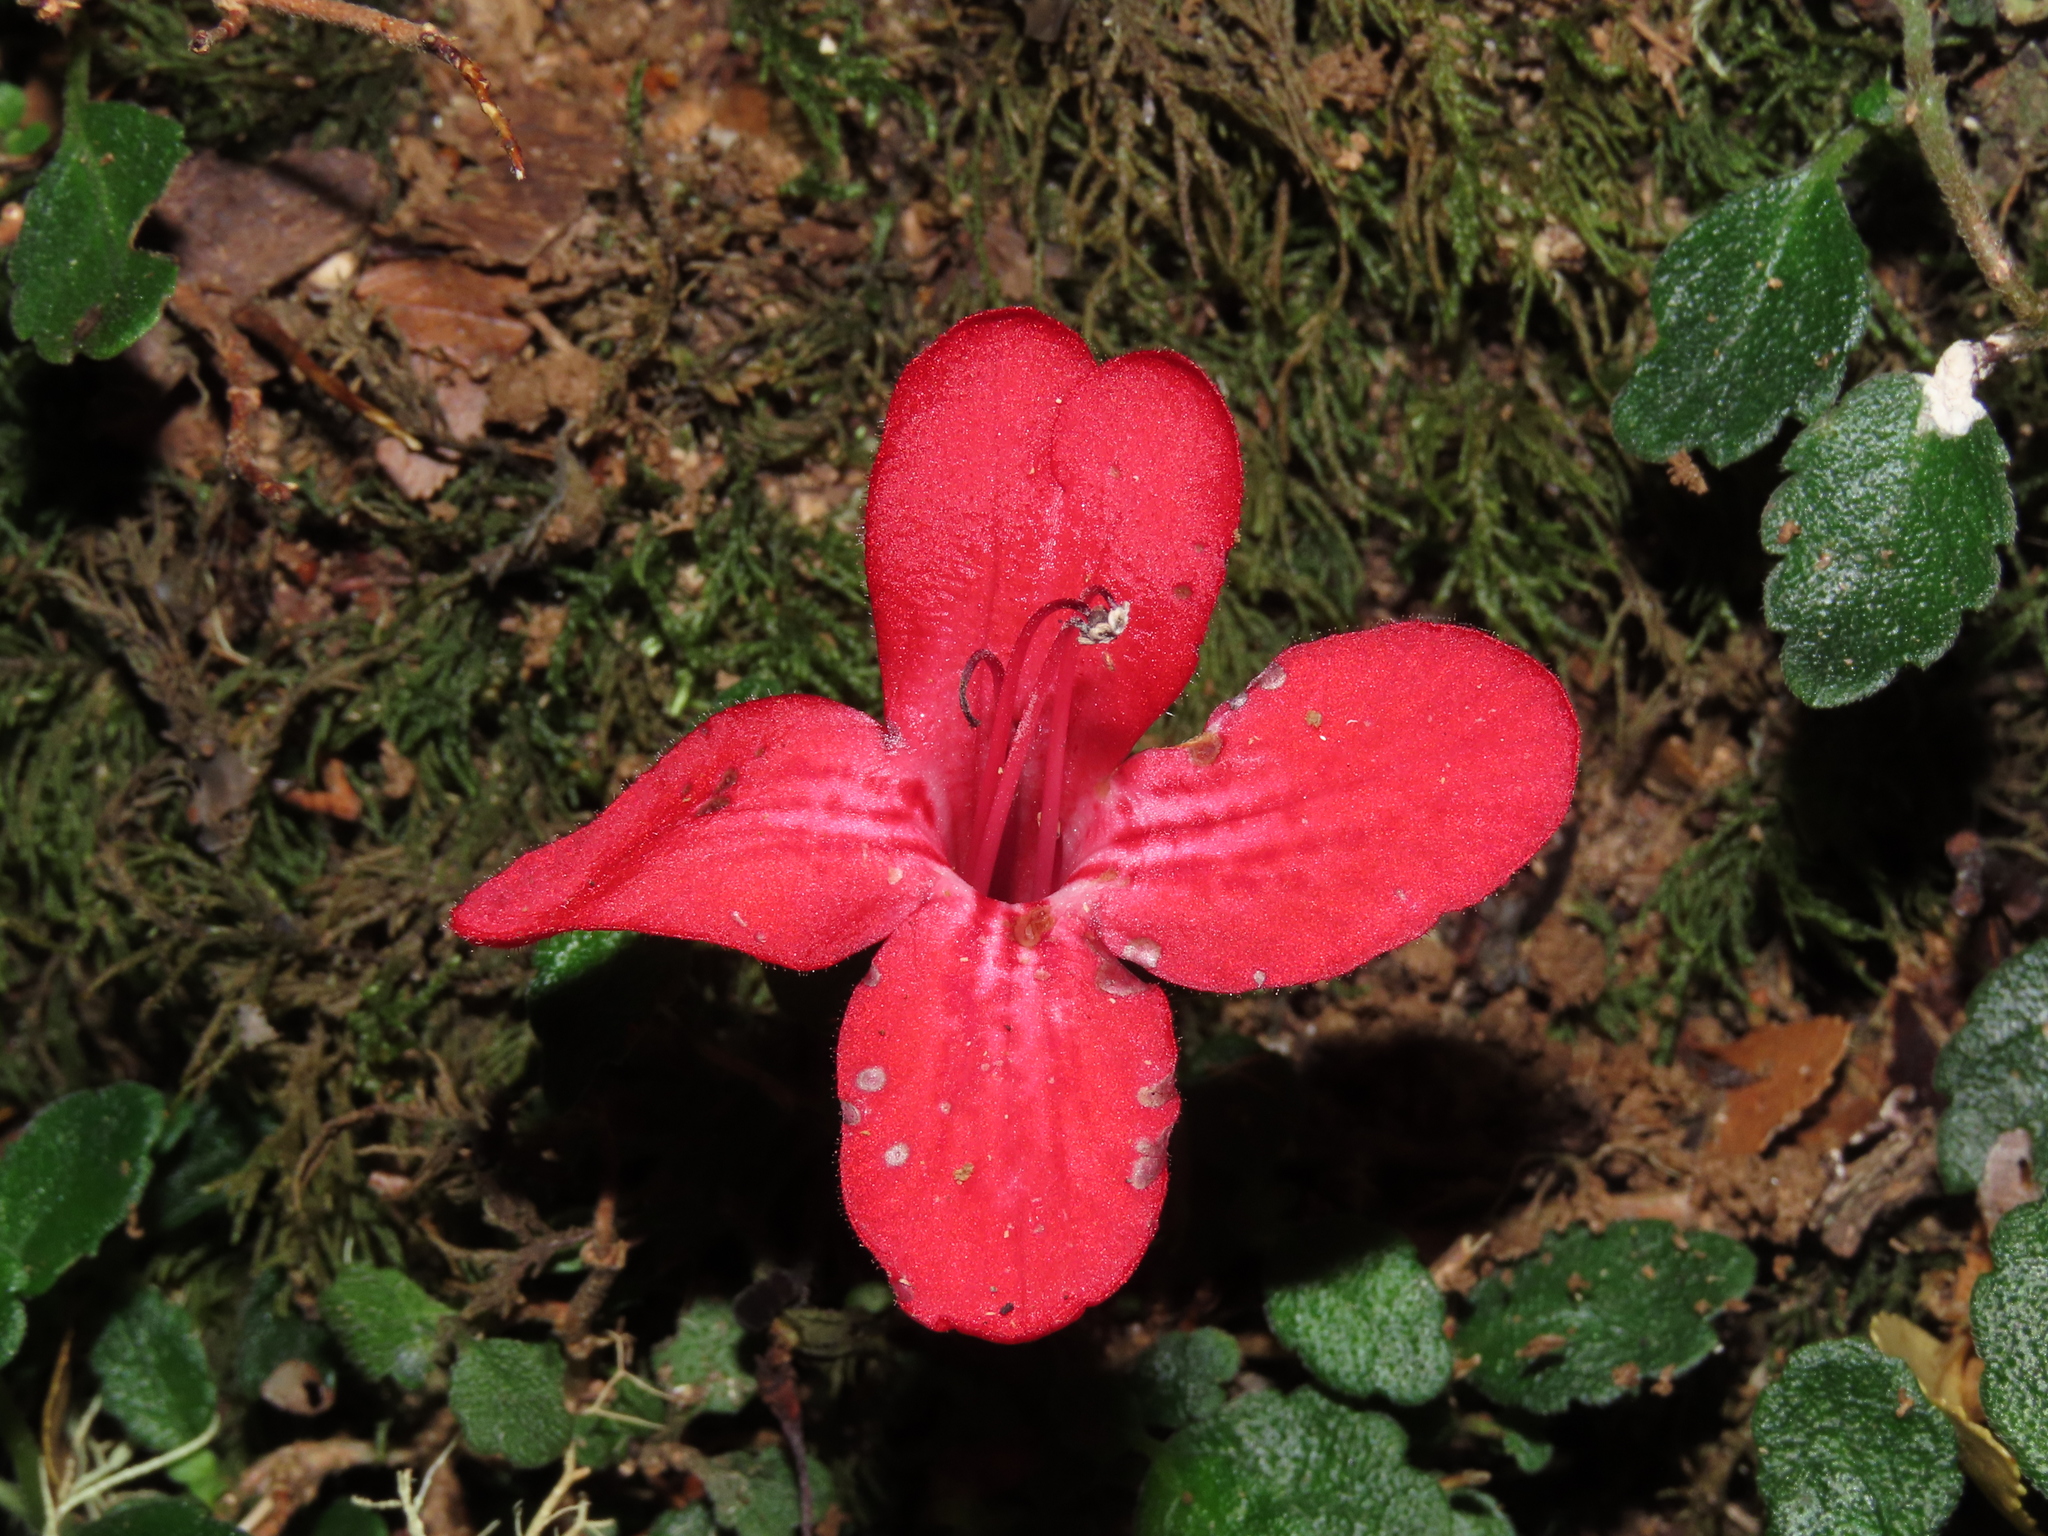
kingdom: Plantae
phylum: Tracheophyta
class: Magnoliopsida
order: Lamiales
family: Gesneriaceae
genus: Asteranthera
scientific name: Asteranthera ovata
